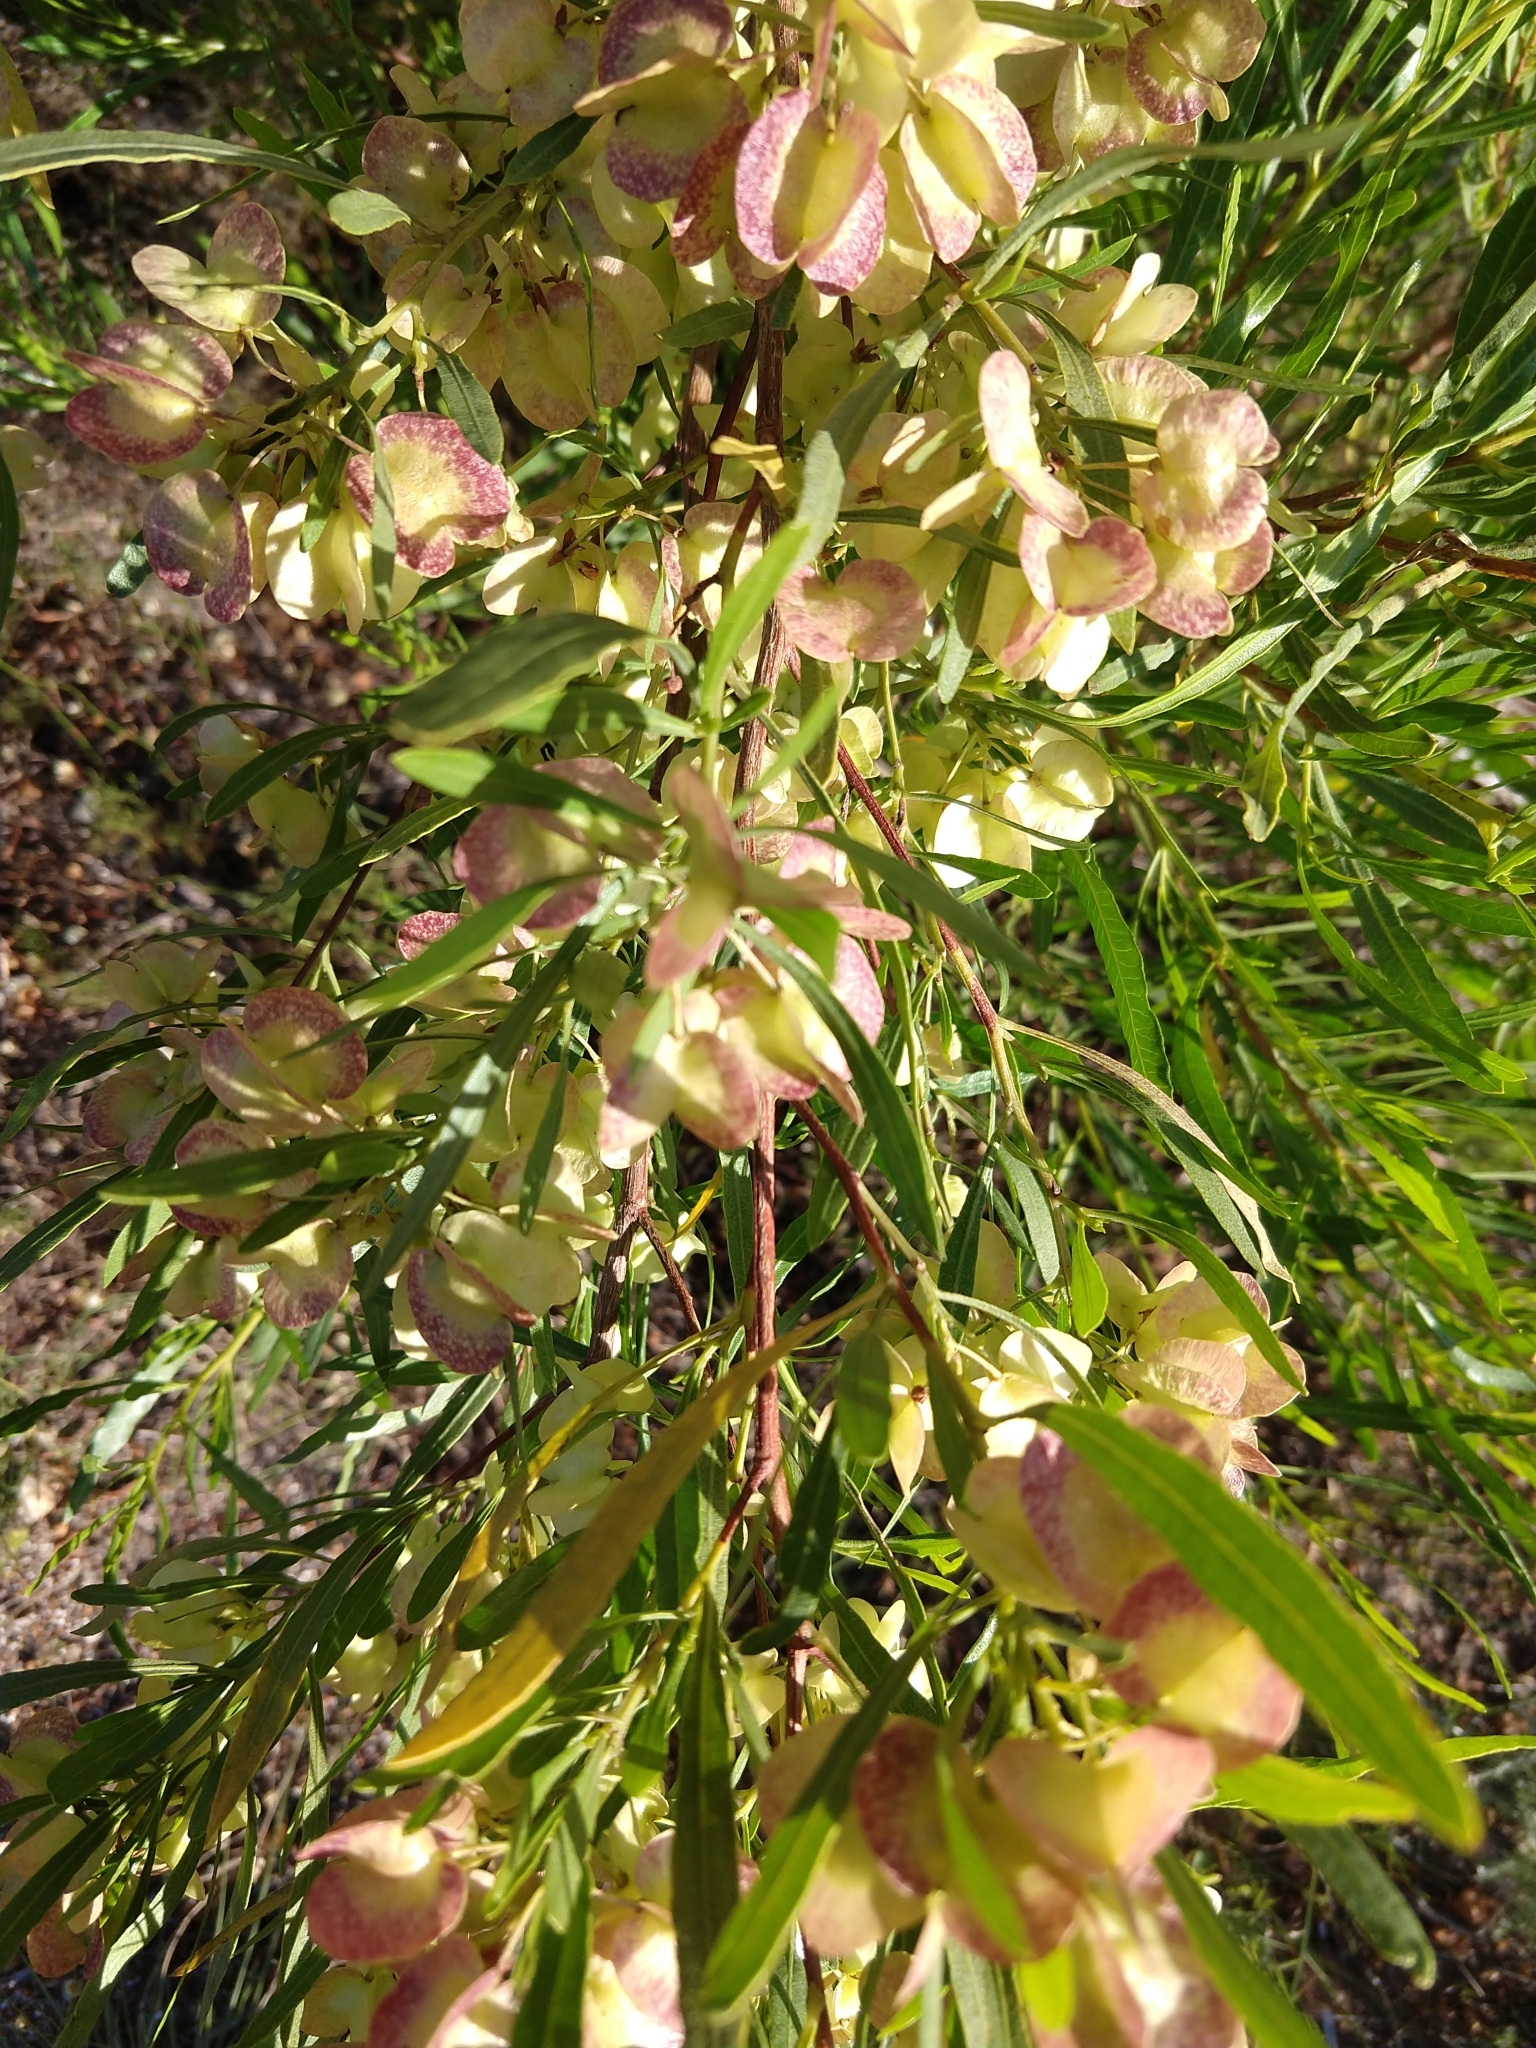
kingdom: Plantae
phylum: Tracheophyta
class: Magnoliopsida
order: Sapindales
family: Sapindaceae
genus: Dodonaea
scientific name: Dodonaea viscosa
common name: Hopbush
